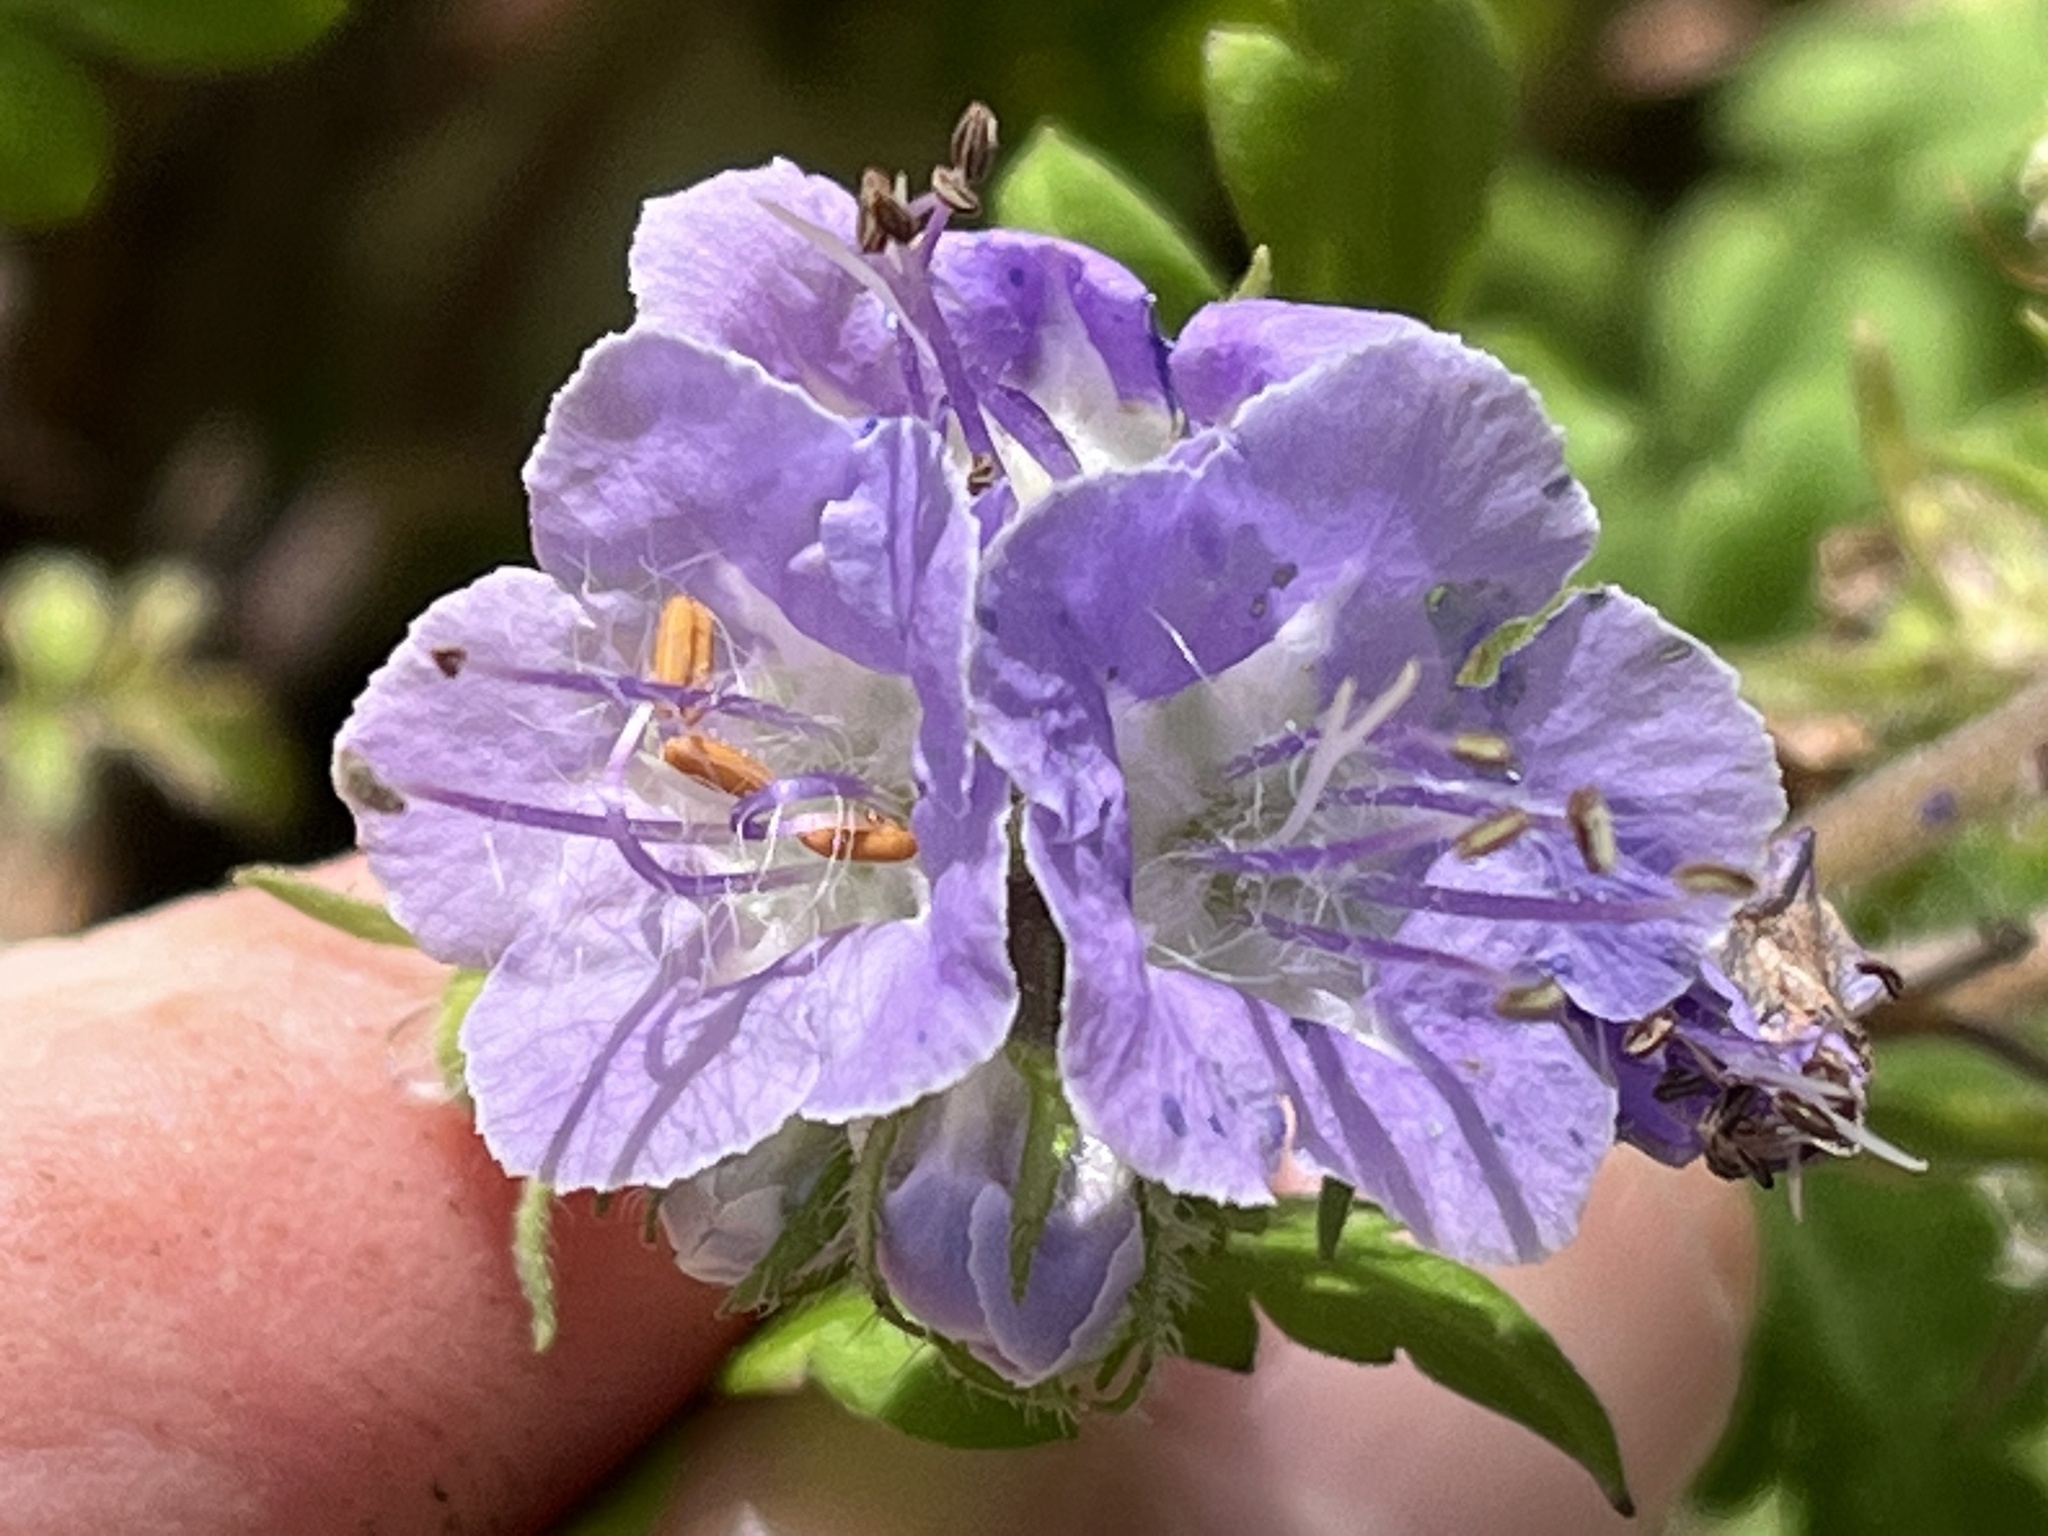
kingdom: Plantae
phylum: Tracheophyta
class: Magnoliopsida
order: Boraginales
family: Hydrophyllaceae
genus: Phacelia
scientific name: Phacelia bipinnatifida
